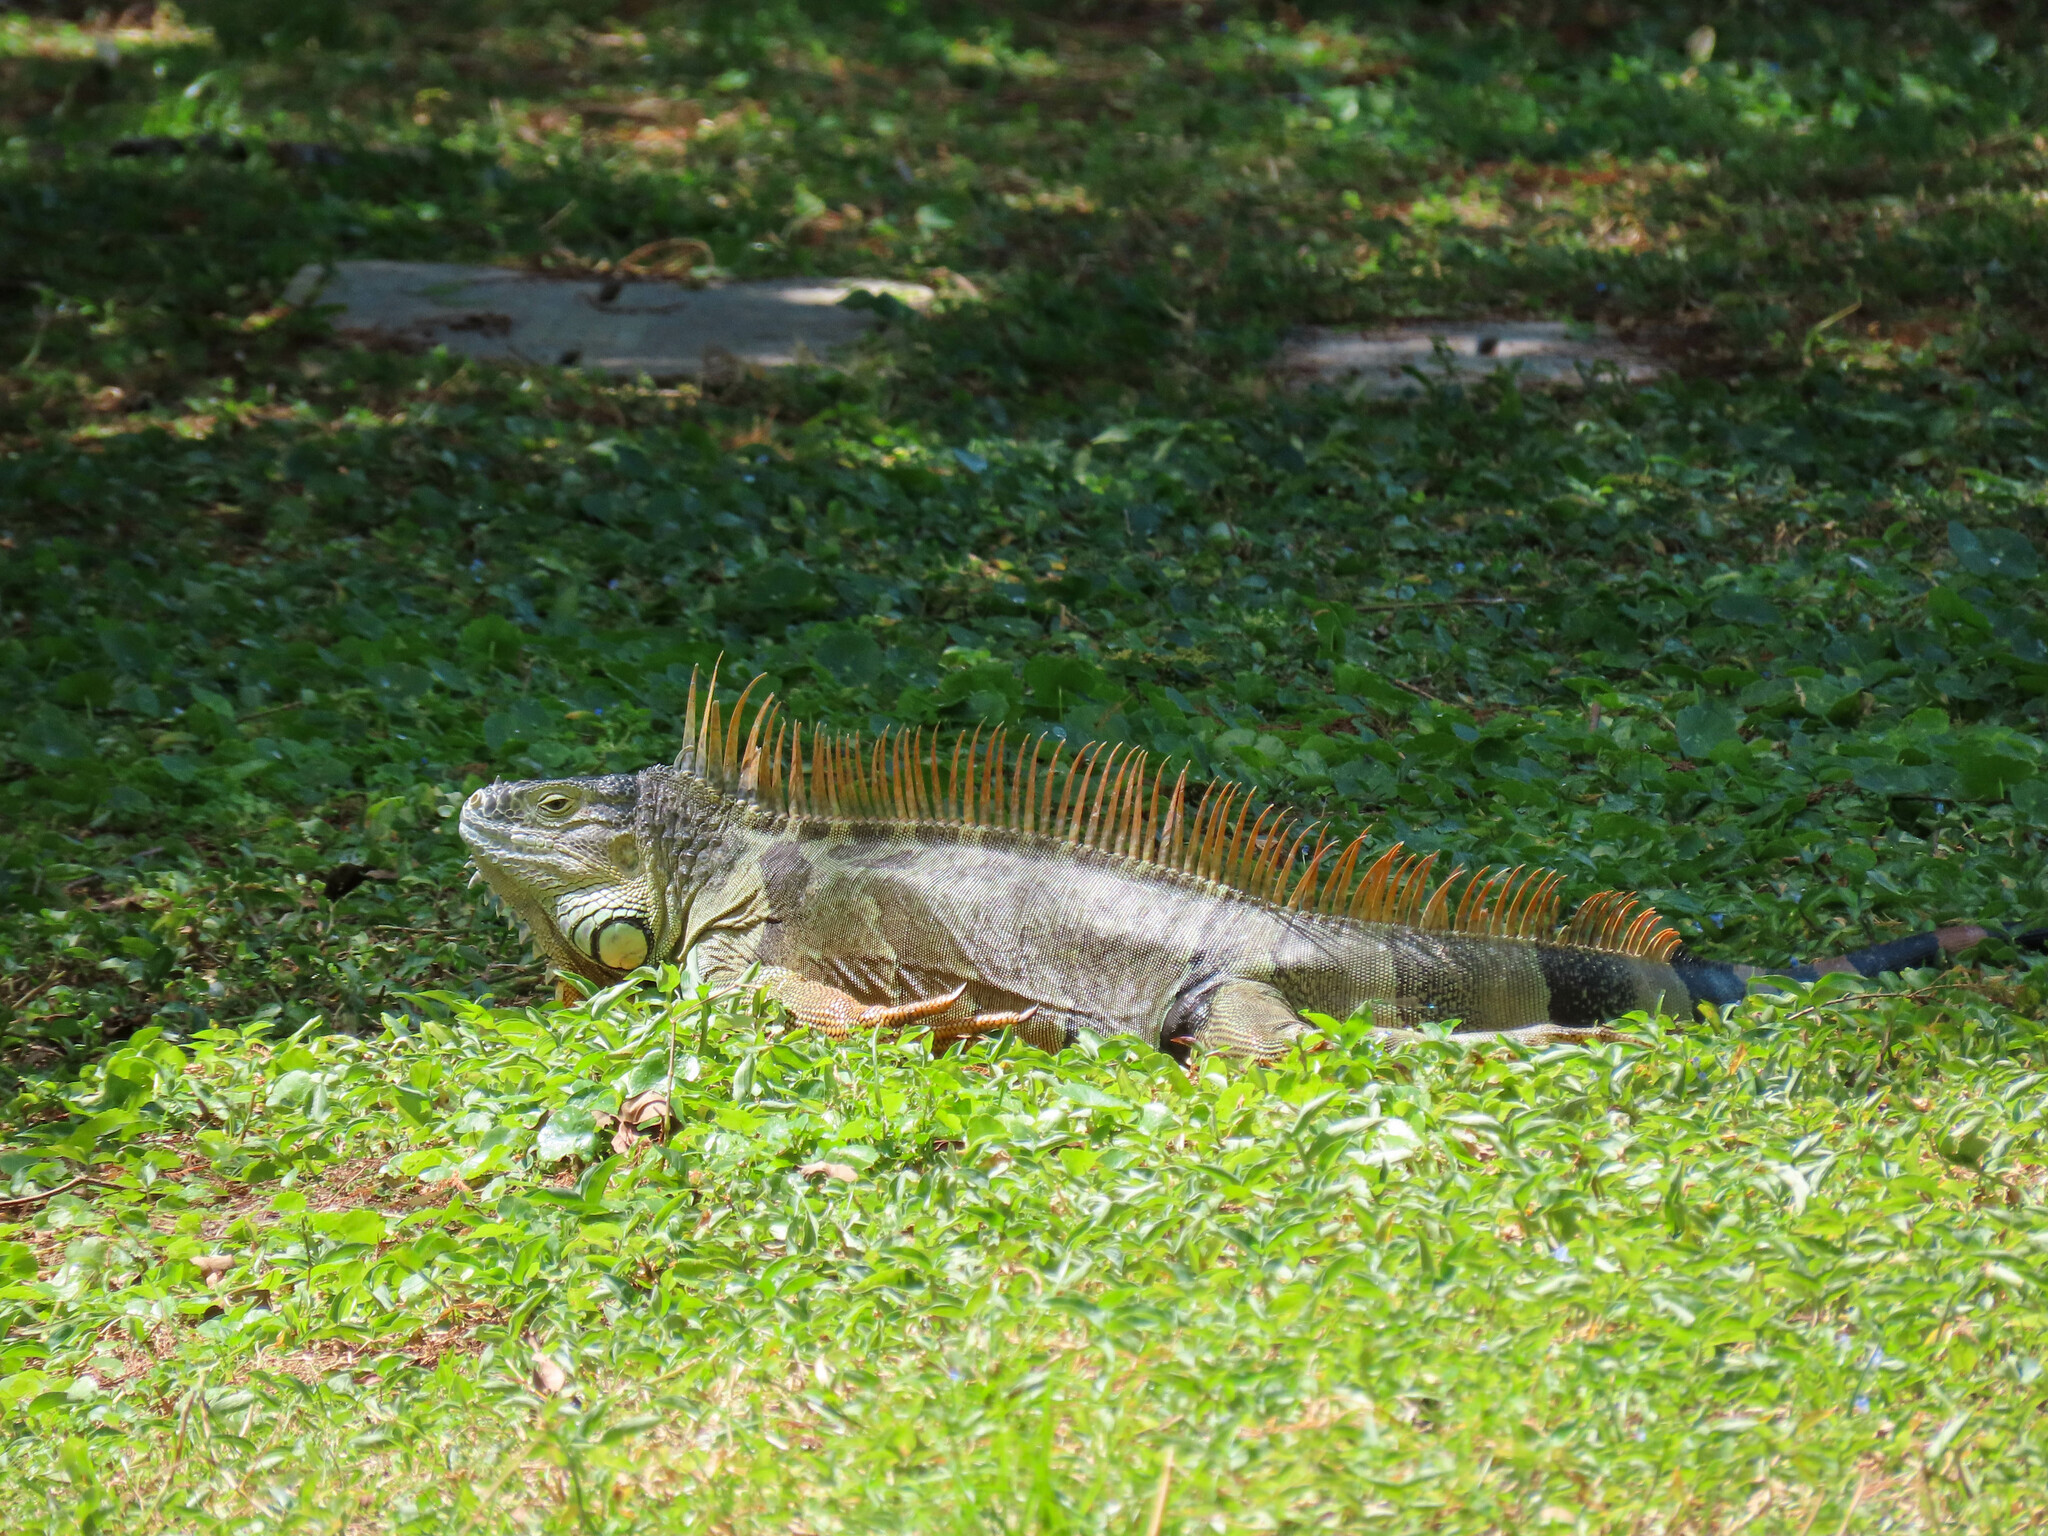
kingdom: Animalia
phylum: Chordata
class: Squamata
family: Iguanidae
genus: Iguana
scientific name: Iguana iguana
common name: Green iguana
